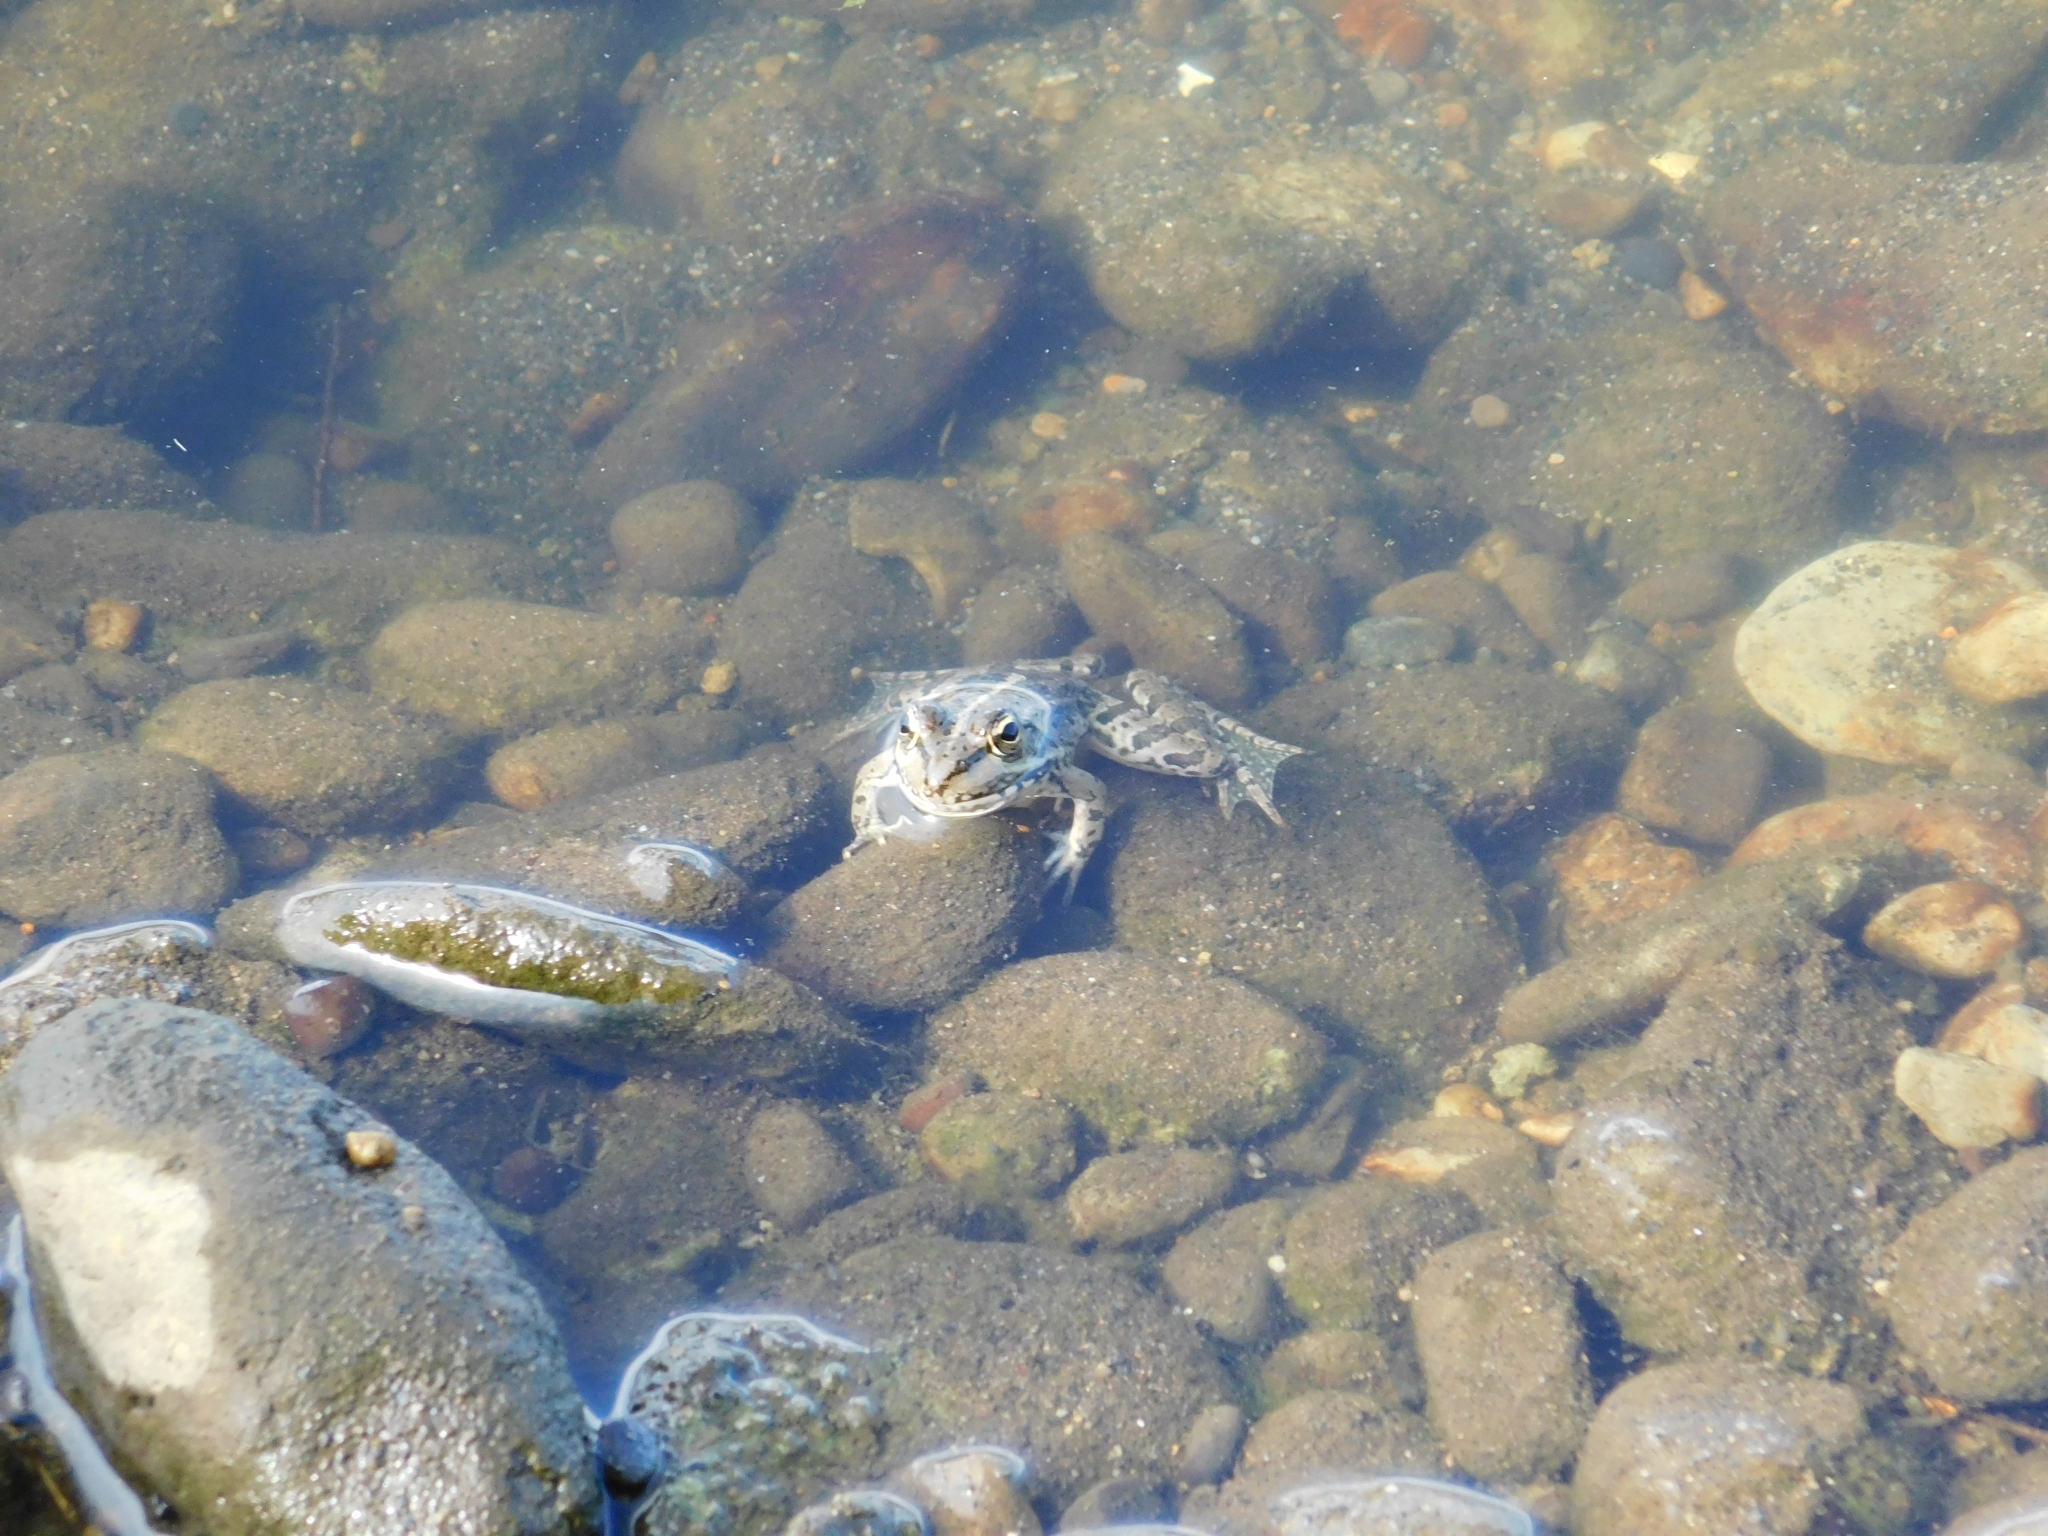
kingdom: Animalia
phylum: Chordata
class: Amphibia
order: Anura
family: Ranidae
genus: Pelophylax
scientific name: Pelophylax ridibundus
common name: Marsh frog
